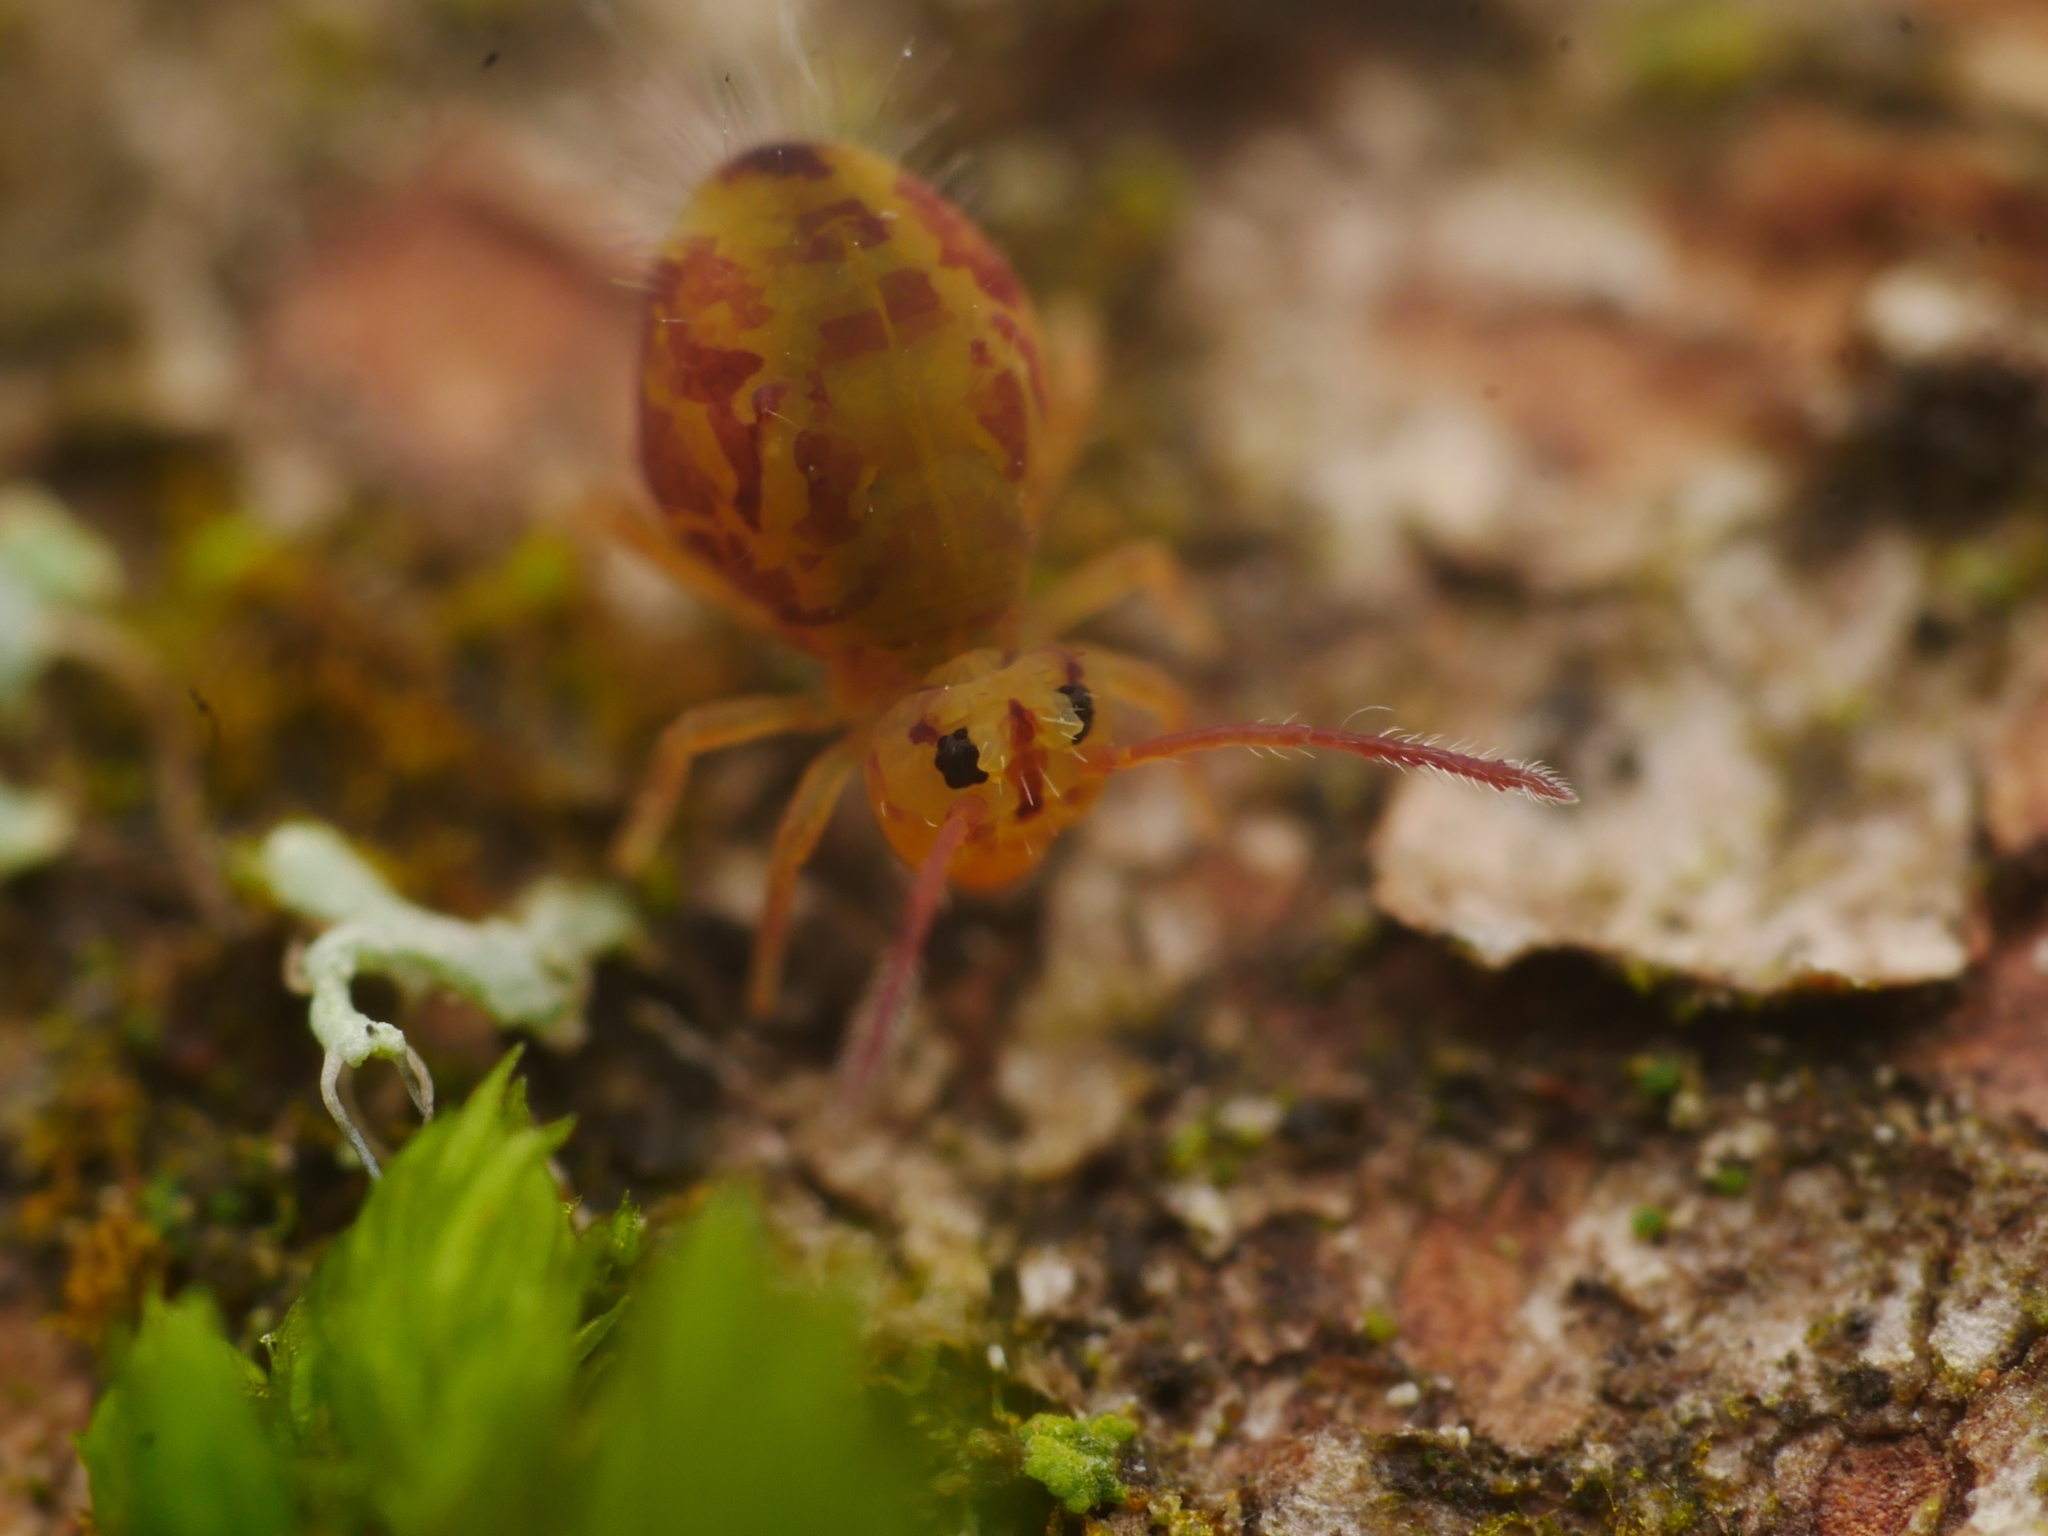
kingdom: Animalia
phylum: Arthropoda
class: Collembola
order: Symphypleona
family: Dicyrtomidae
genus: Dicyrtomina
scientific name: Dicyrtomina ornata
